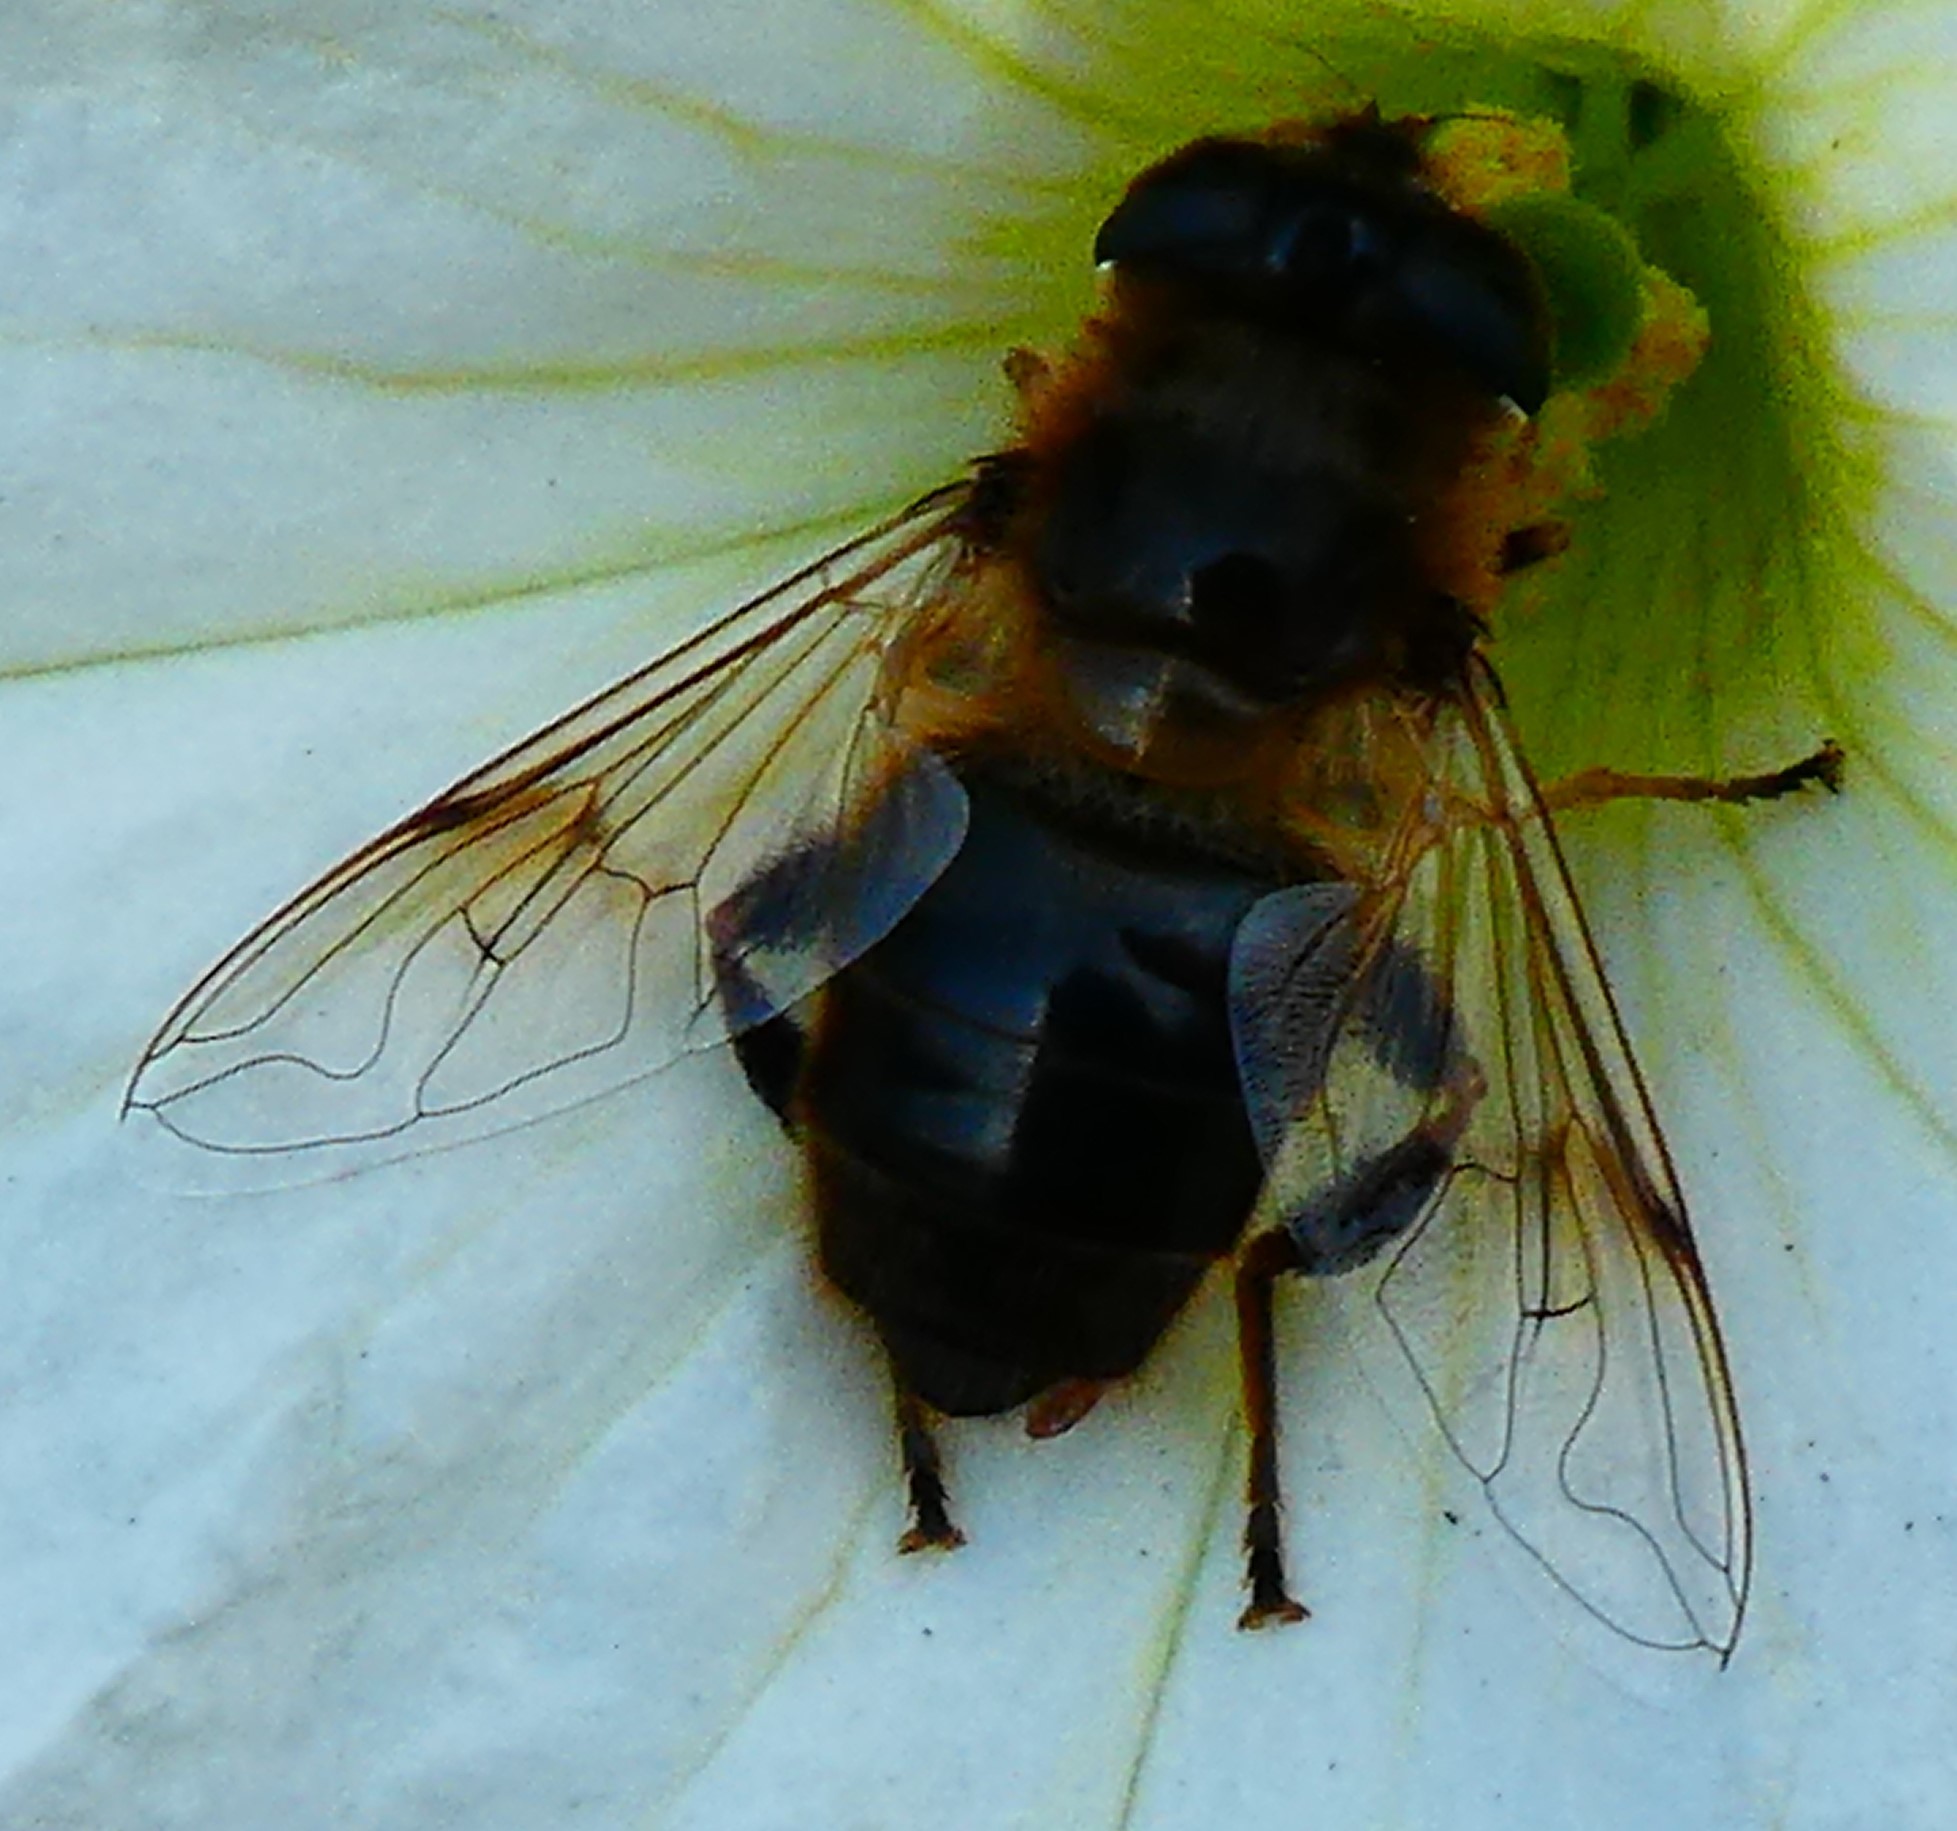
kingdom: Animalia
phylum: Arthropoda
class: Insecta
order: Diptera
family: Syrphidae
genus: Eristalis
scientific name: Eristalis tenax
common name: Drone fly
